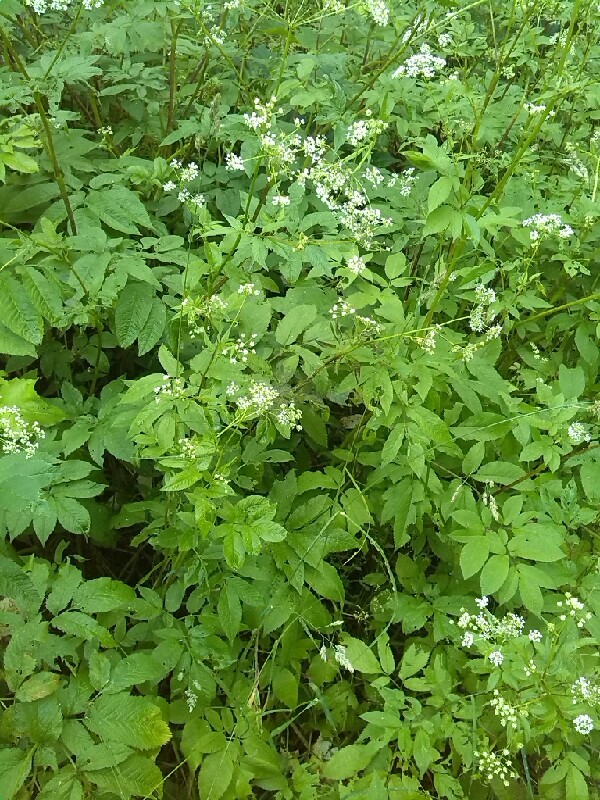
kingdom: Plantae
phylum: Tracheophyta
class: Magnoliopsida
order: Apiales
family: Apiaceae
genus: Chaerophyllum
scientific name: Chaerophyllum aromaticum
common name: Broadleaf chervil
